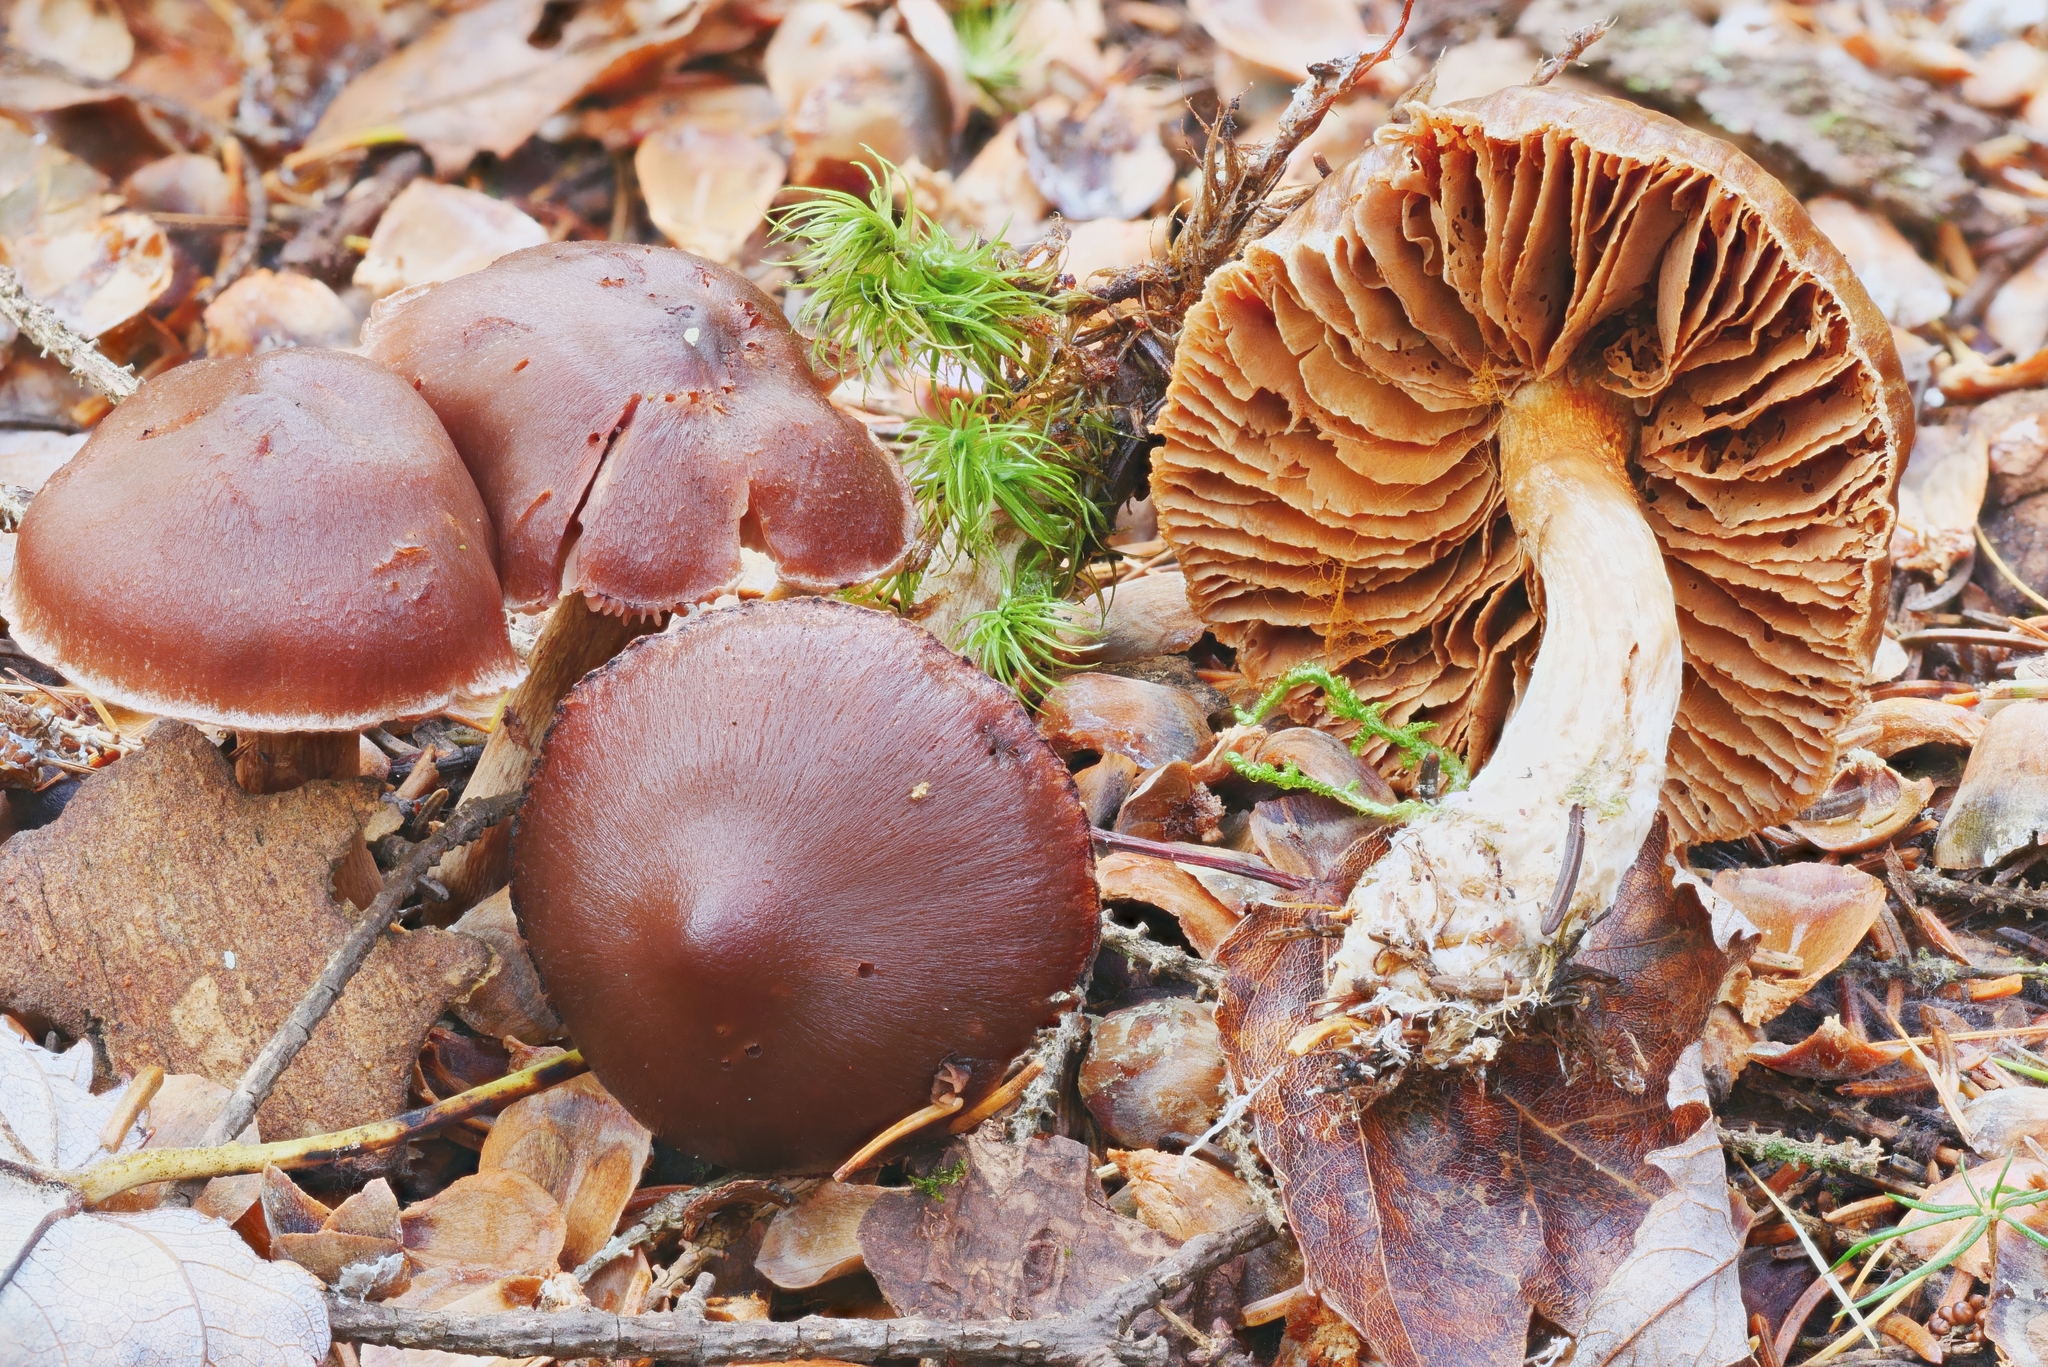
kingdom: Fungi
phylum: Basidiomycota
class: Agaricomycetes
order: Agaricales
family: Cortinariaceae
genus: Cortinarius
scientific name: Cortinarius glandicolor
